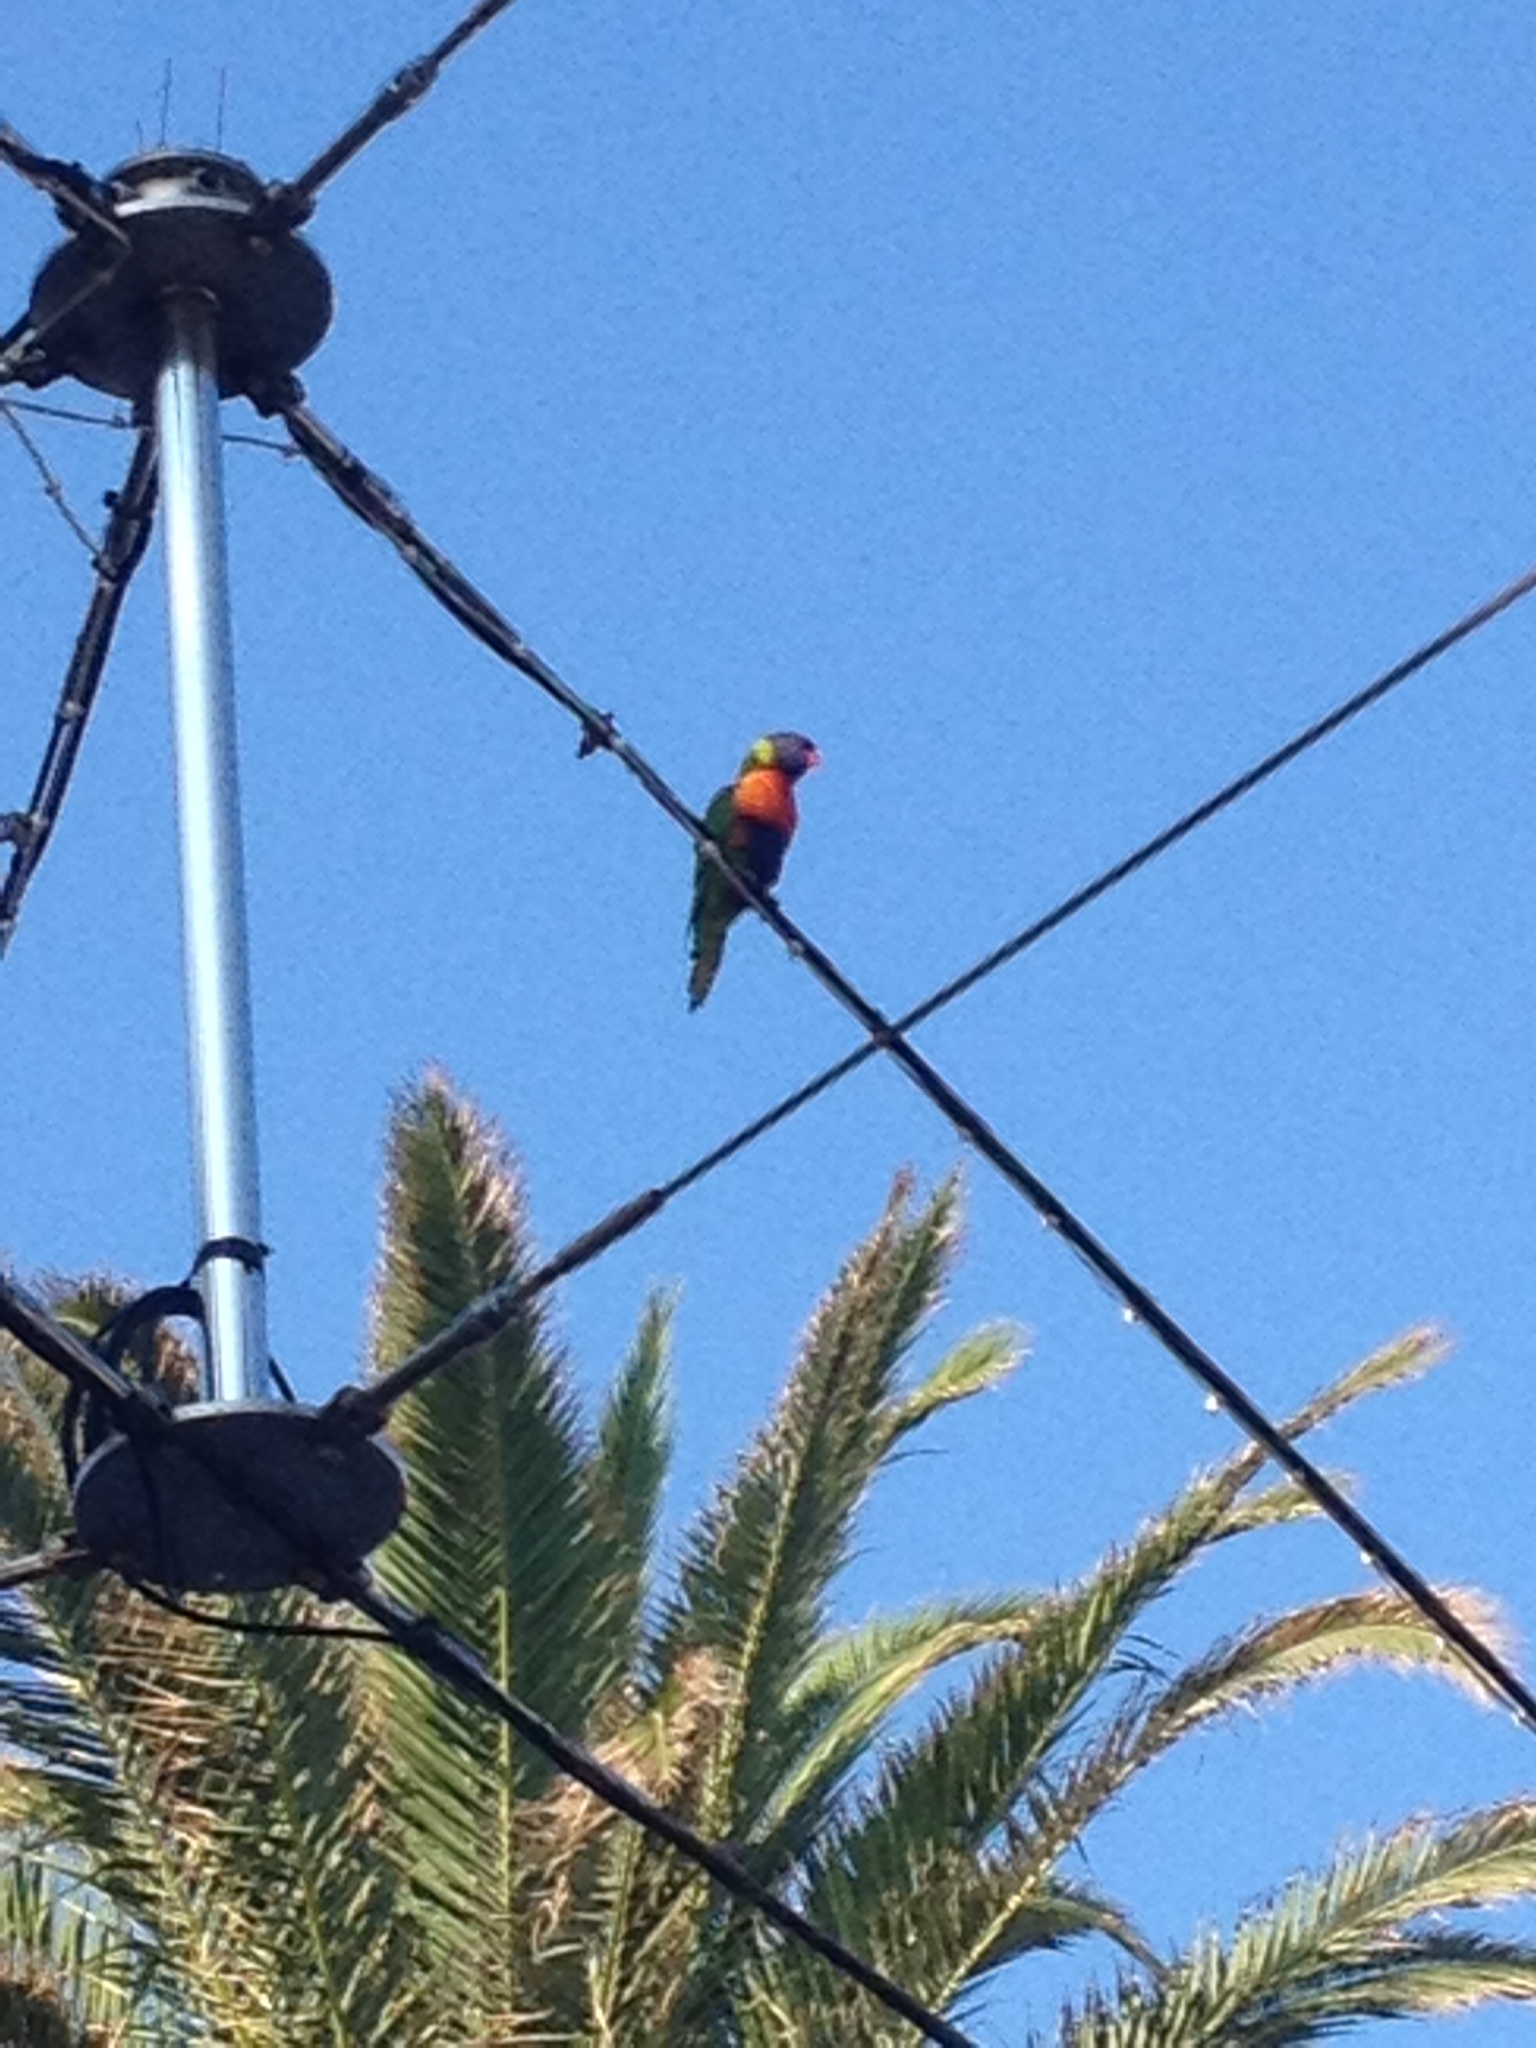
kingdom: Animalia
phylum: Chordata
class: Aves
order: Psittaciformes
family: Psittacidae
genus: Trichoglossus
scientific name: Trichoglossus haematodus
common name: Coconut lorikeet
